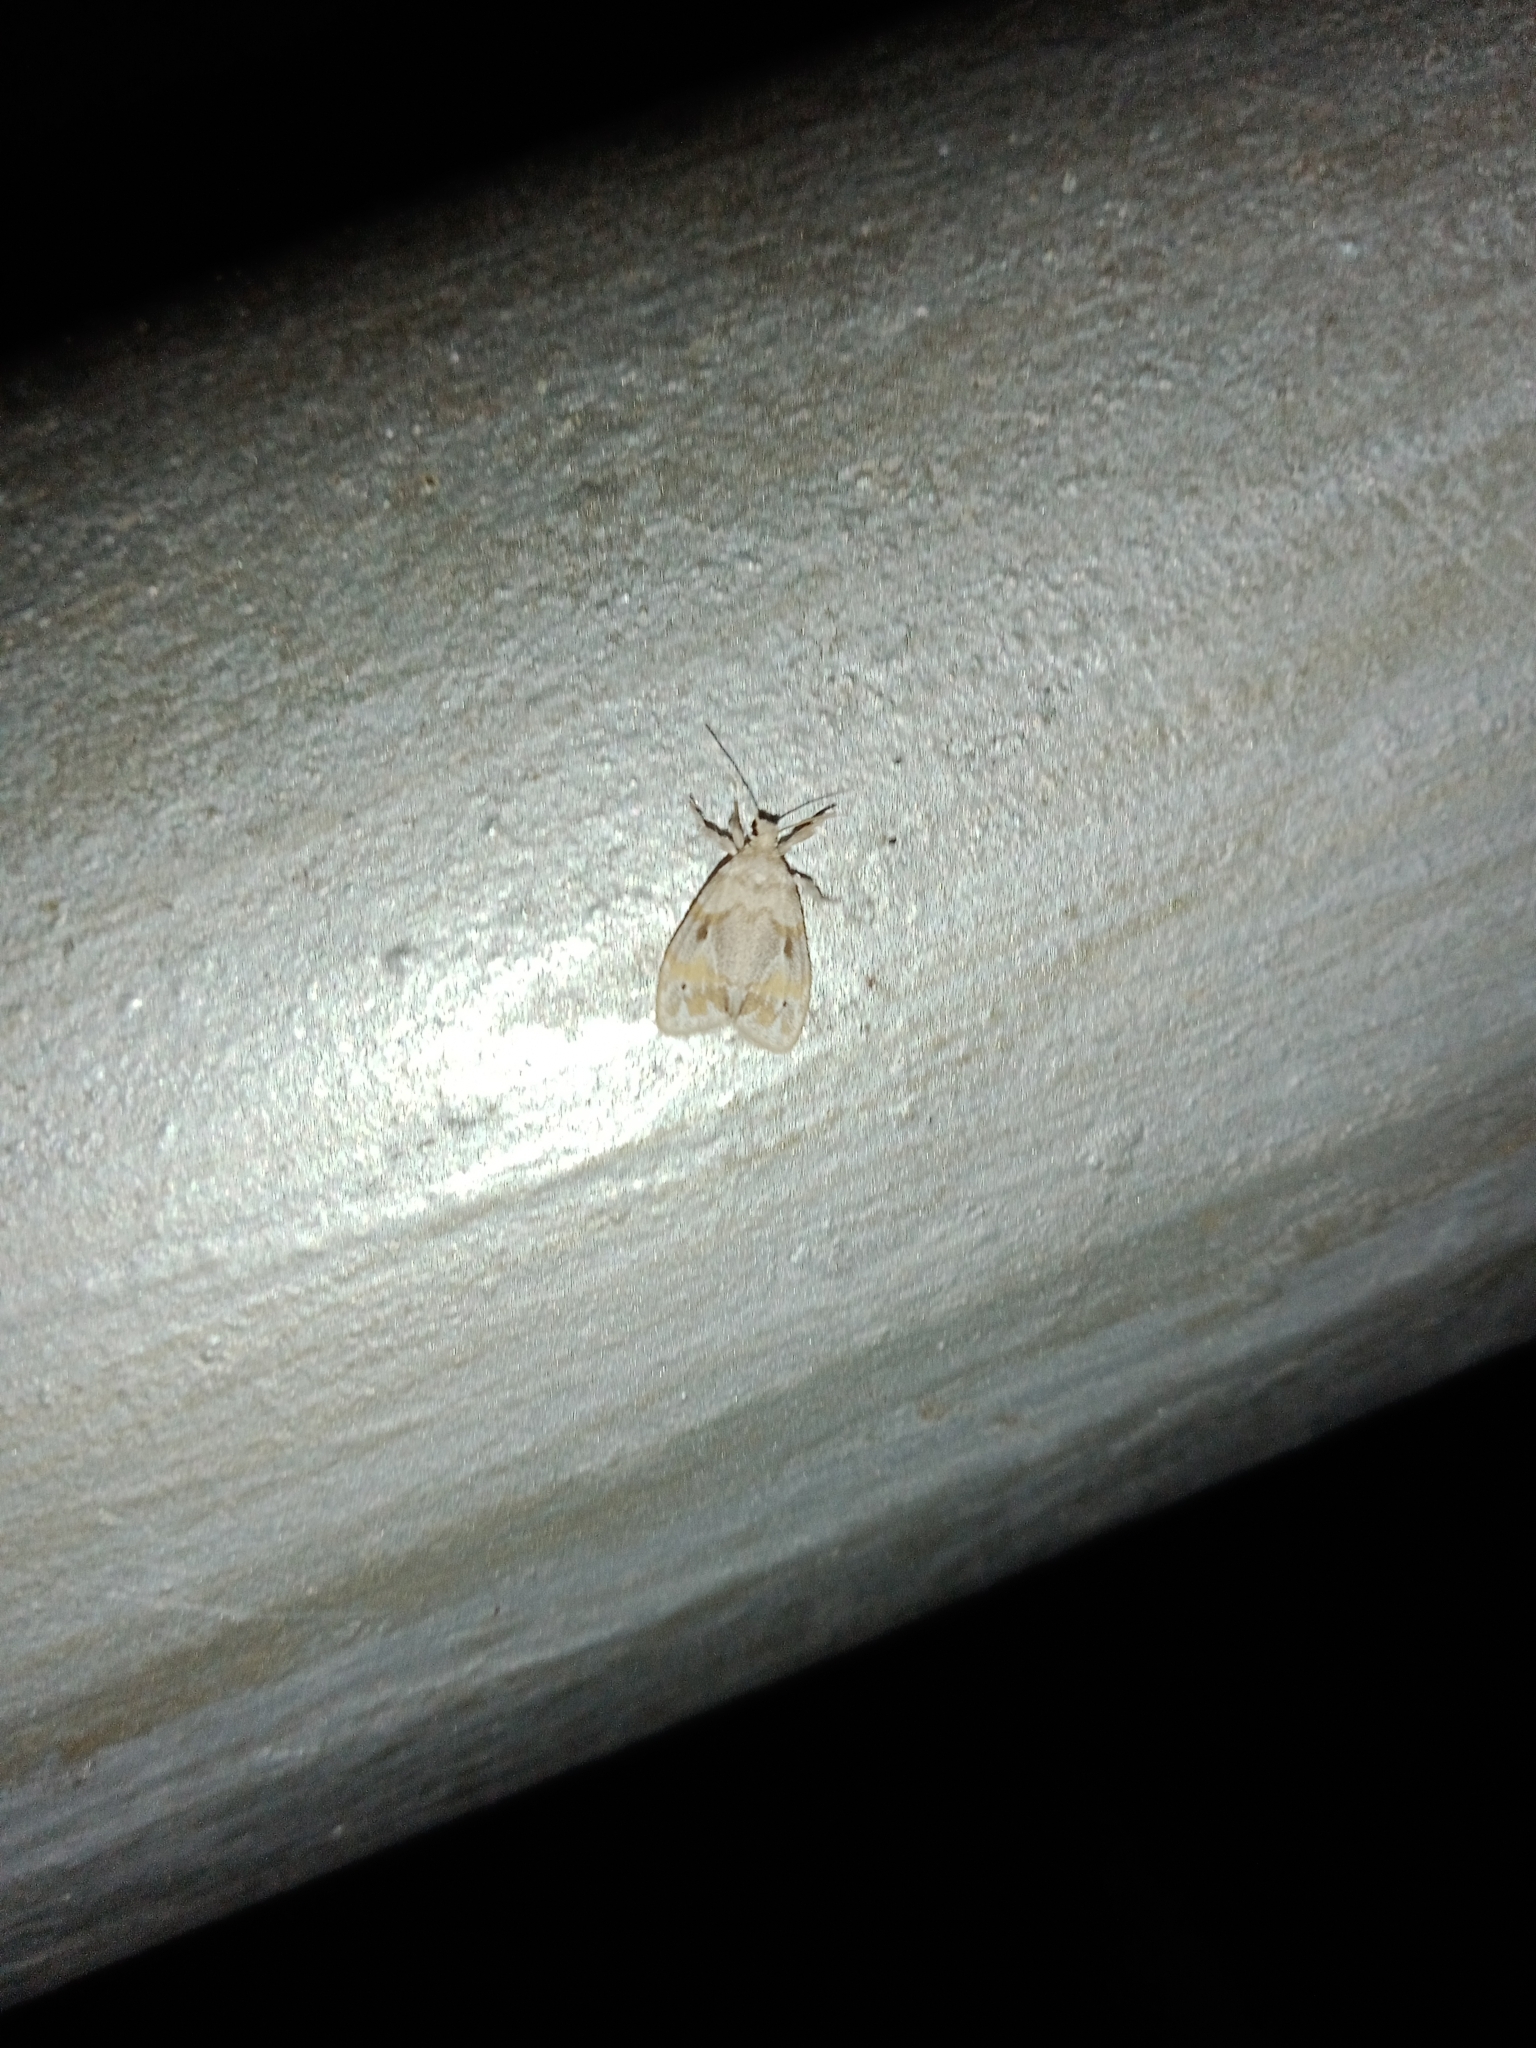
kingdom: Animalia
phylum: Arthropoda
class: Insecta
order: Lepidoptera
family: Erebidae
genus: Nudaria
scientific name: Nudaria diaphanella
